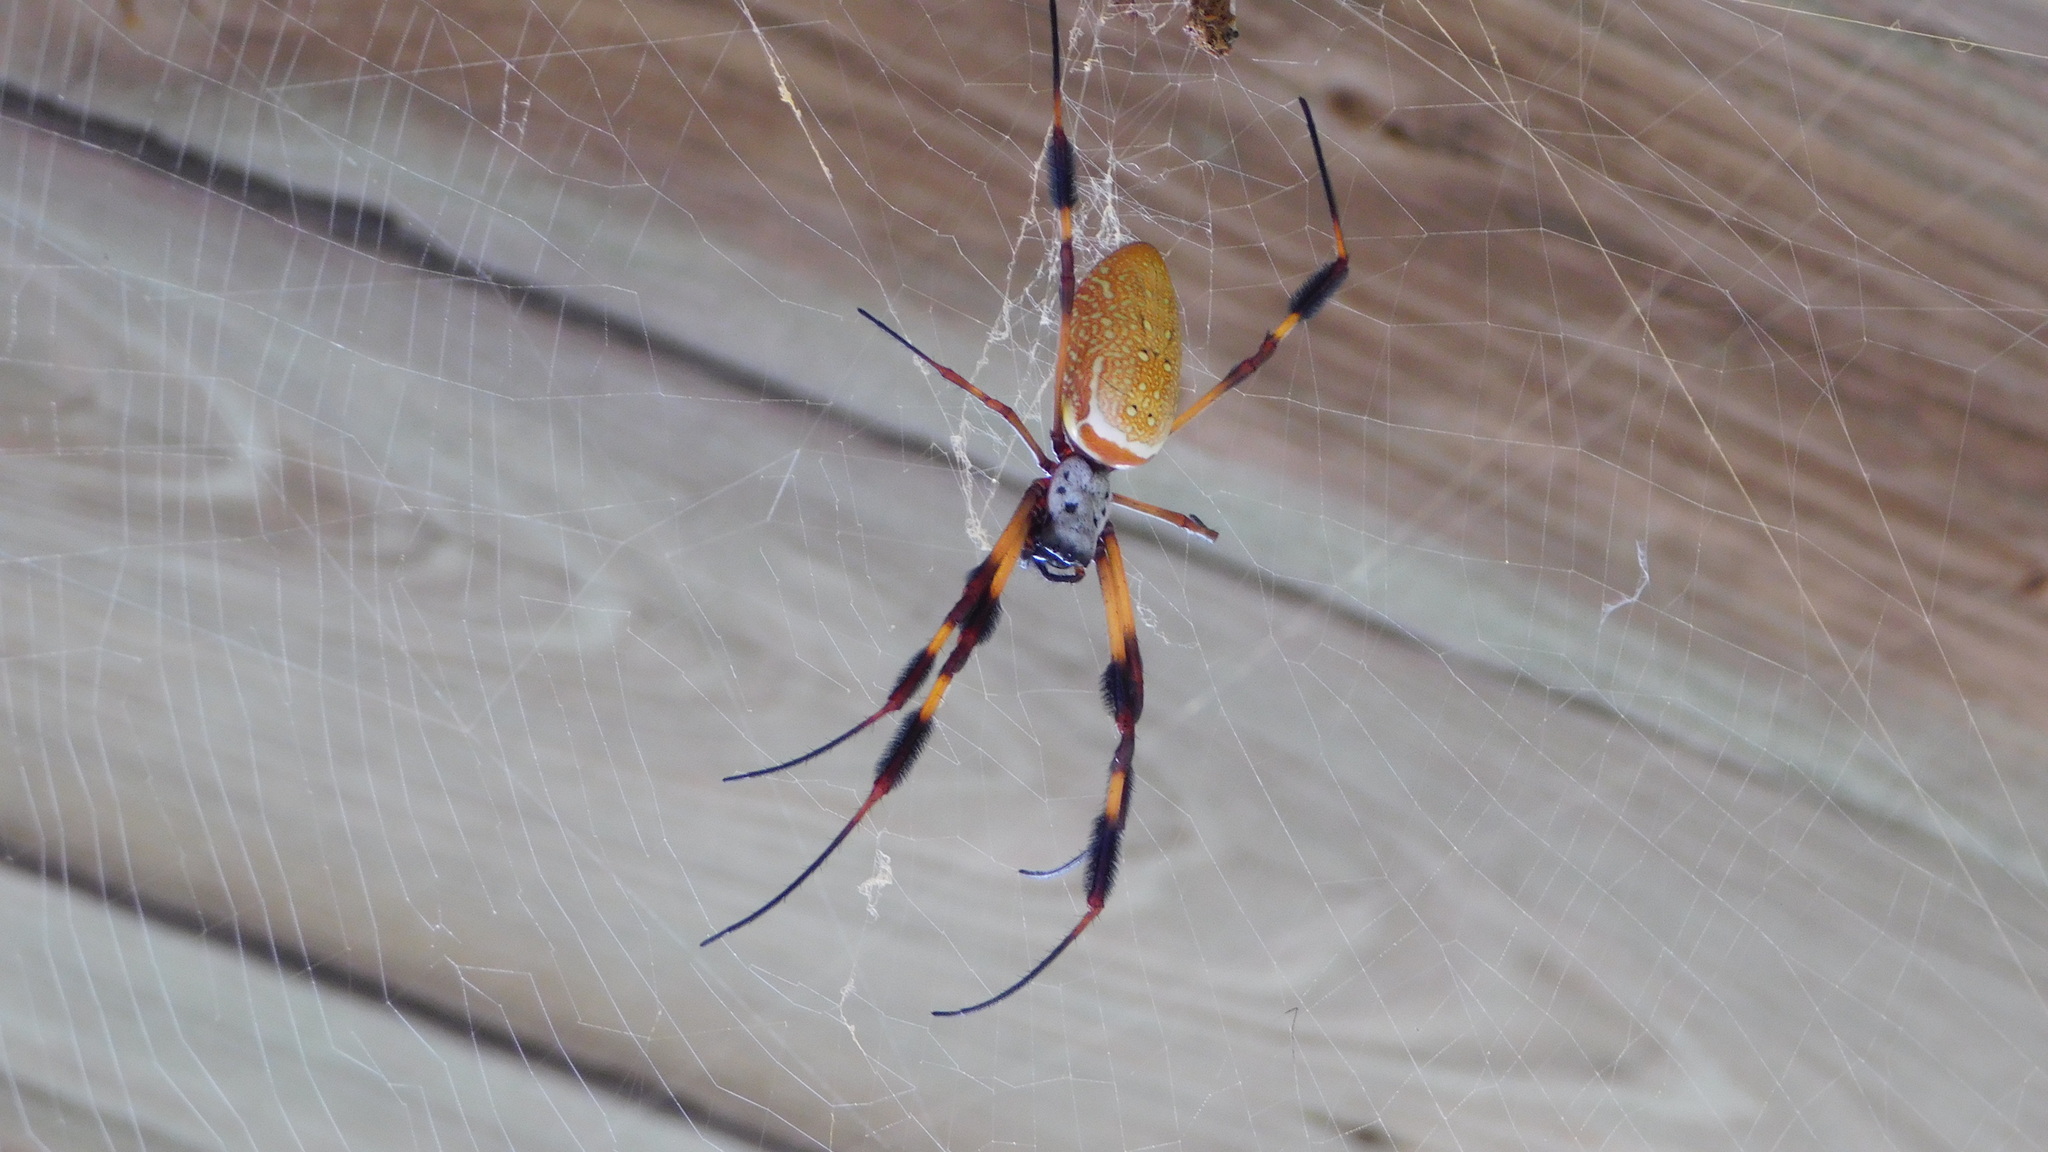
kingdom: Animalia
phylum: Arthropoda
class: Arachnida
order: Araneae
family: Araneidae
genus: Trichonephila
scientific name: Trichonephila clavipes
